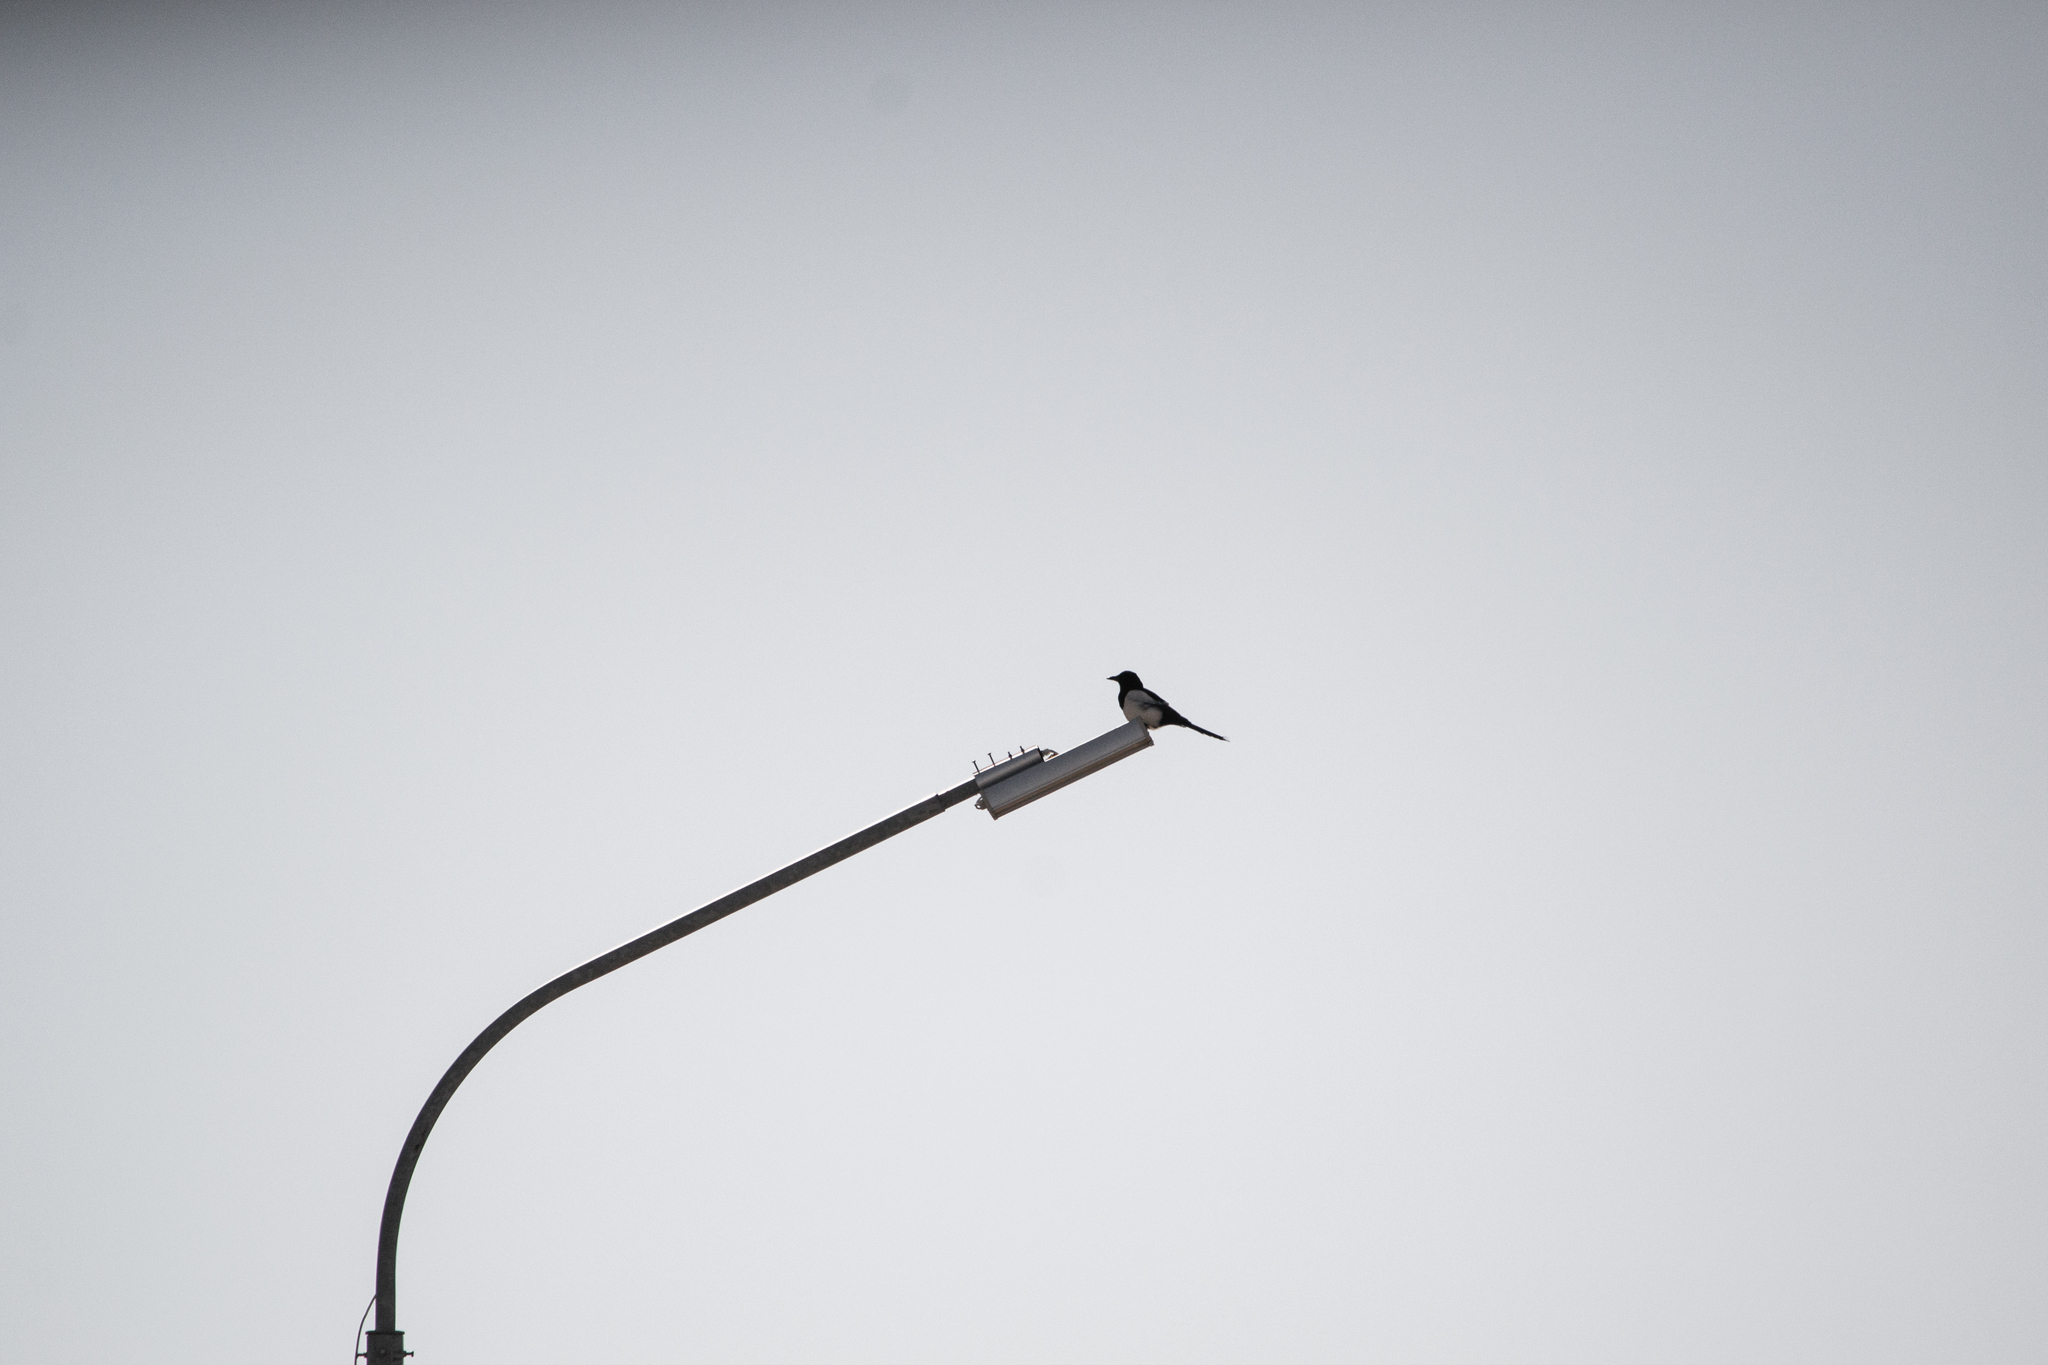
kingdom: Animalia
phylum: Chordata
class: Aves
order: Passeriformes
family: Corvidae
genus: Pica
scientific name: Pica pica
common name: Eurasian magpie
